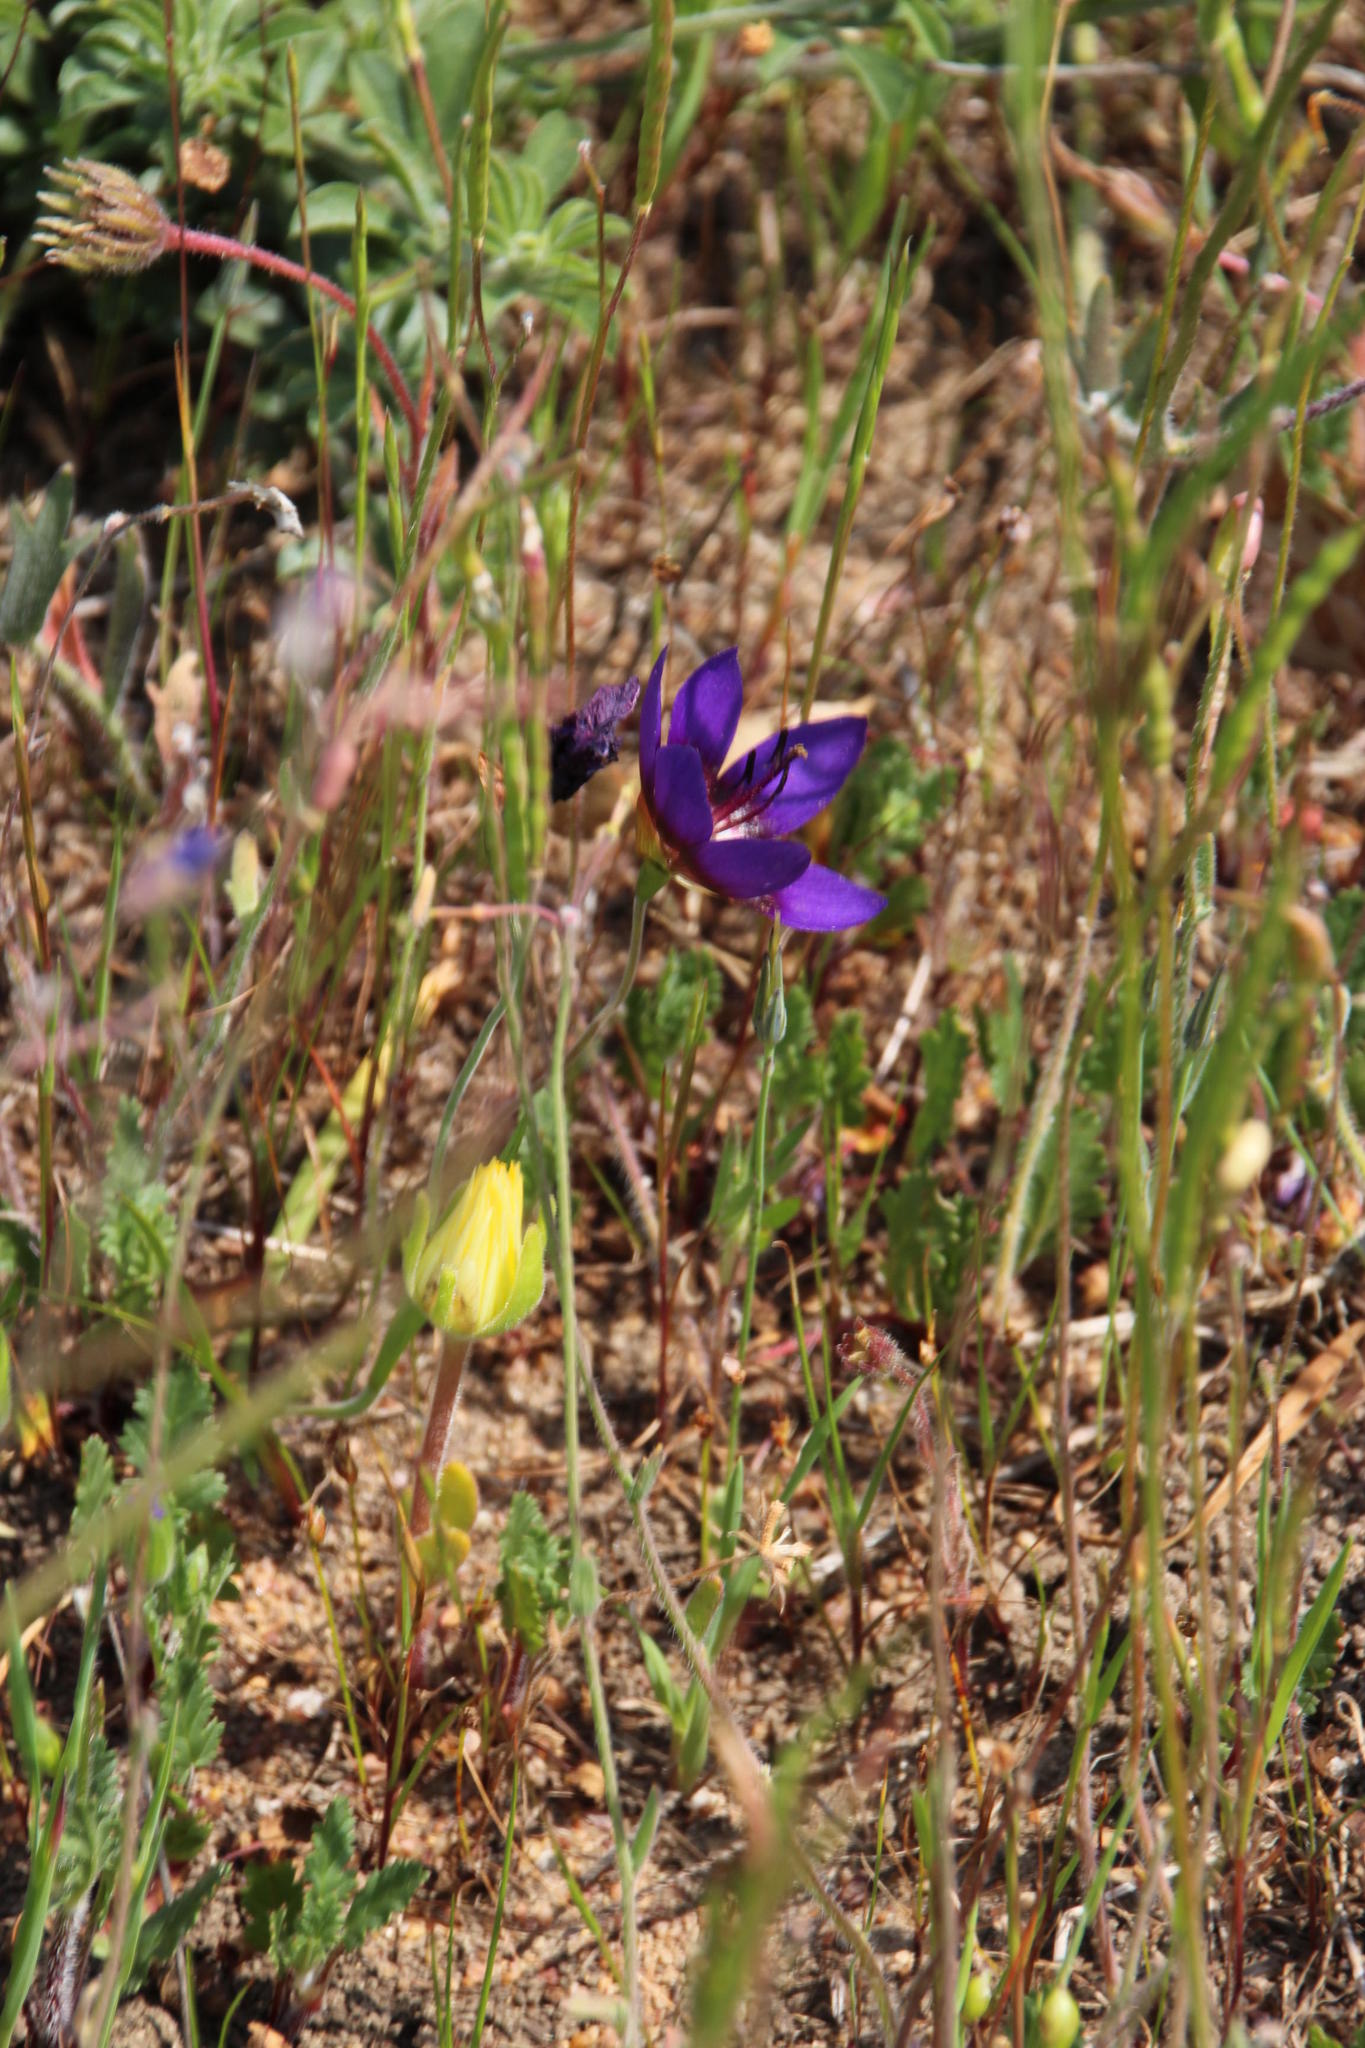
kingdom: Plantae
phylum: Tracheophyta
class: Liliopsida
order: Asparagales
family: Iridaceae
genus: Geissorhiza
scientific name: Geissorhiza monanthos
